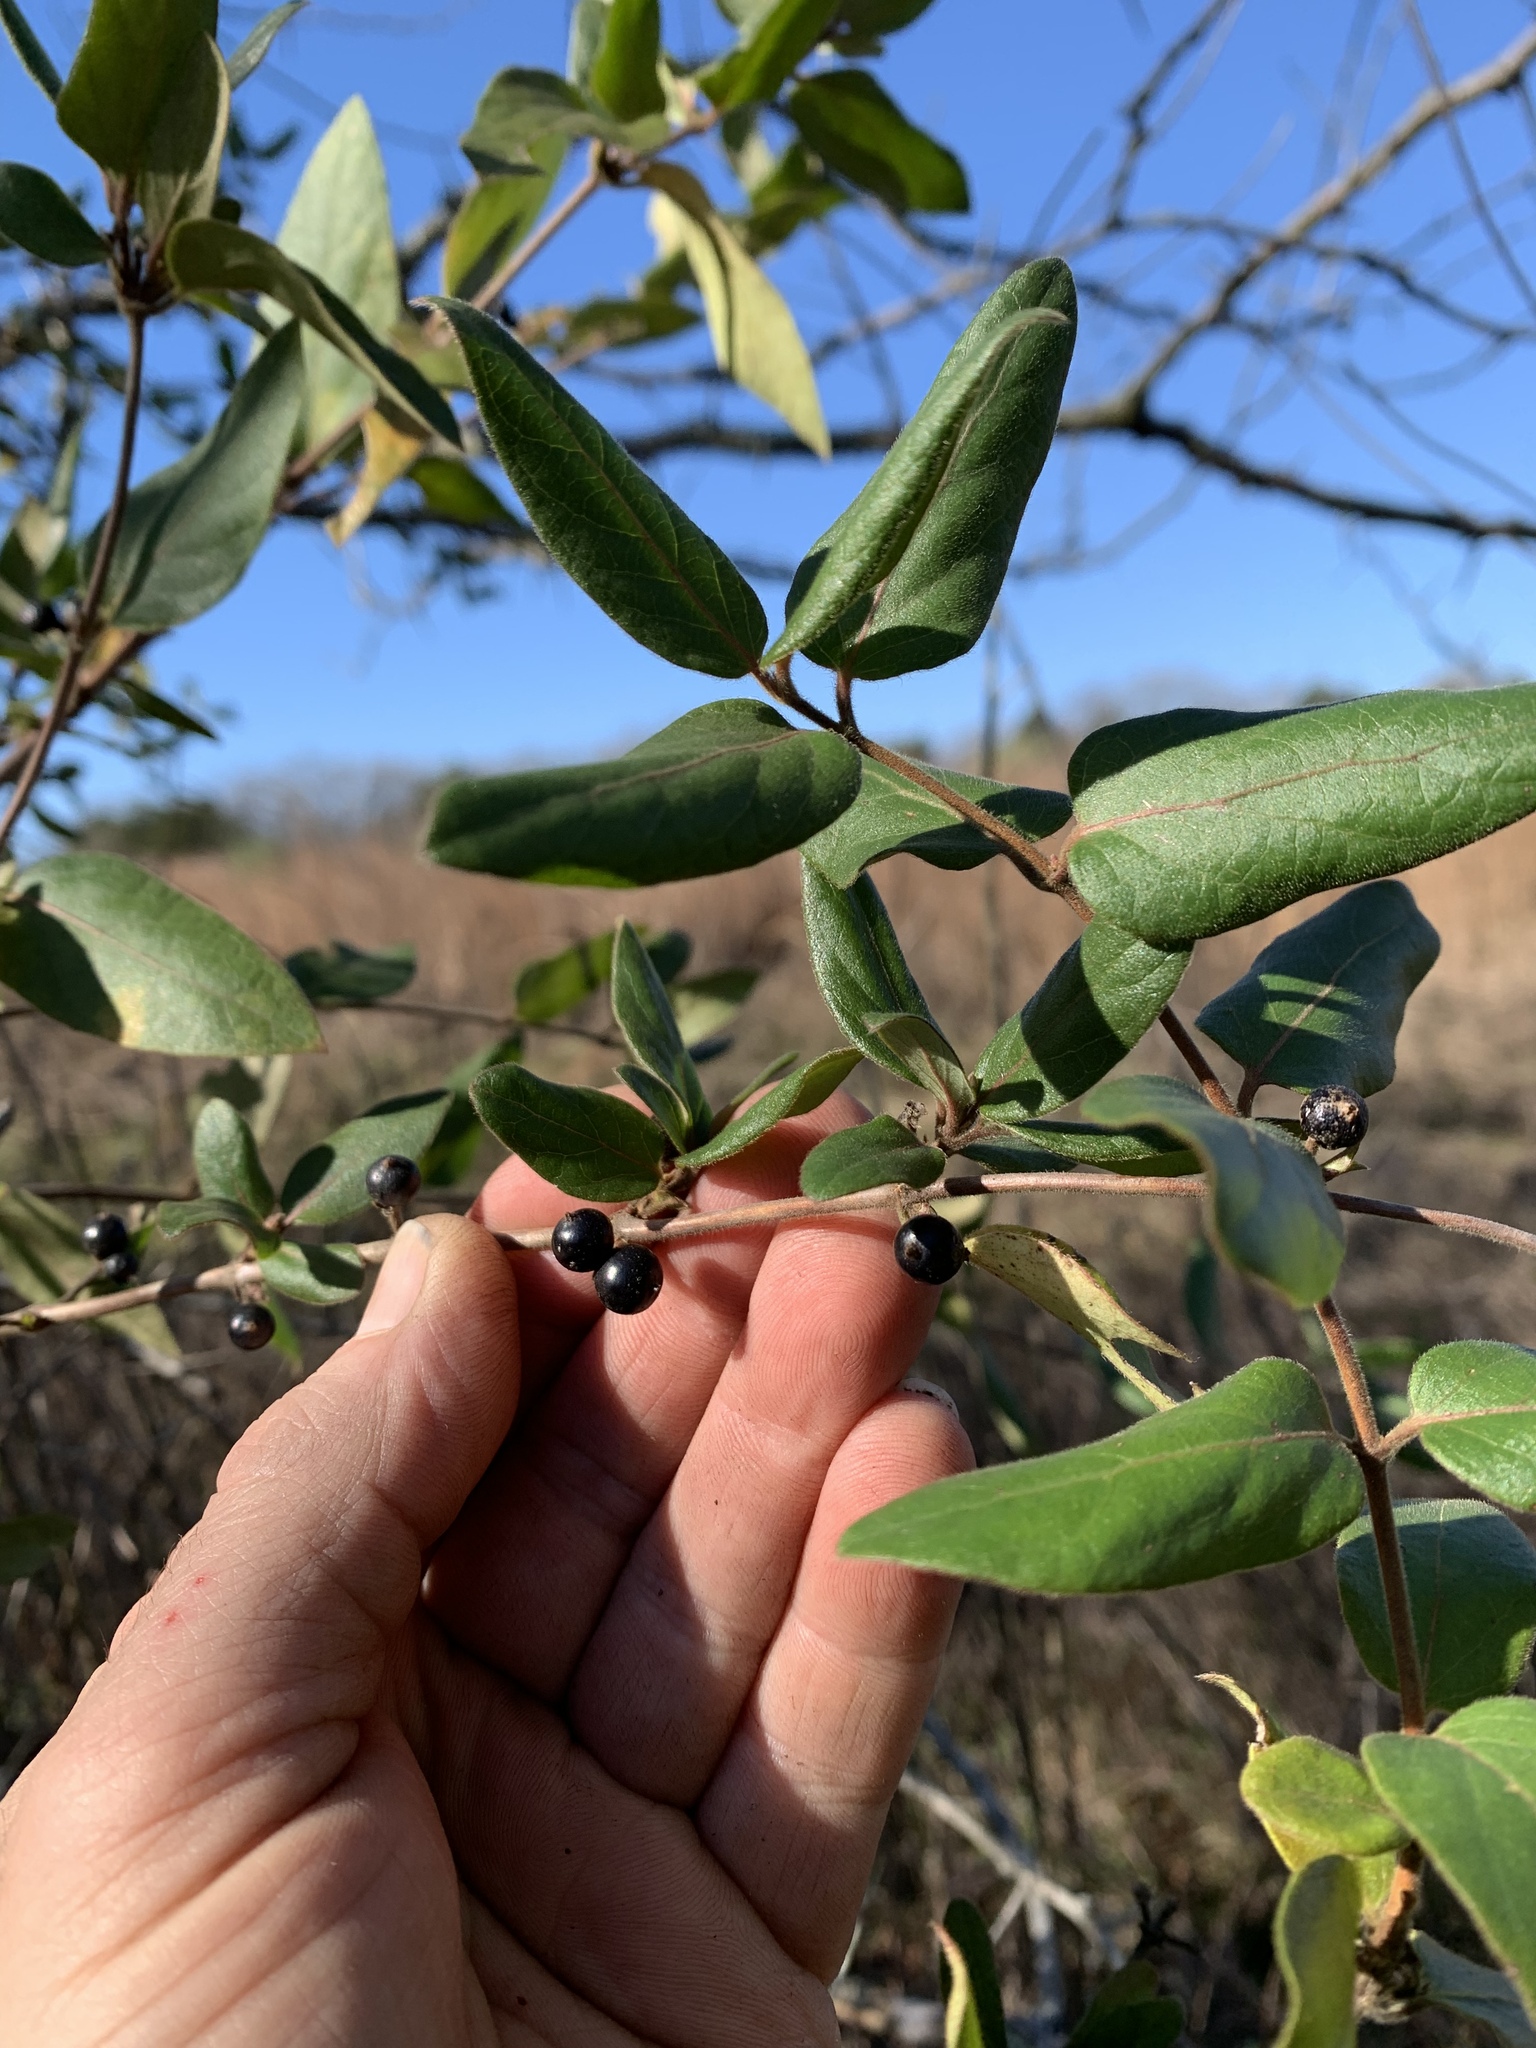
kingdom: Plantae
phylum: Tracheophyta
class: Magnoliopsida
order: Dipsacales
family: Caprifoliaceae
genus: Lonicera
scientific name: Lonicera japonica
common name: Japanese honeysuckle
